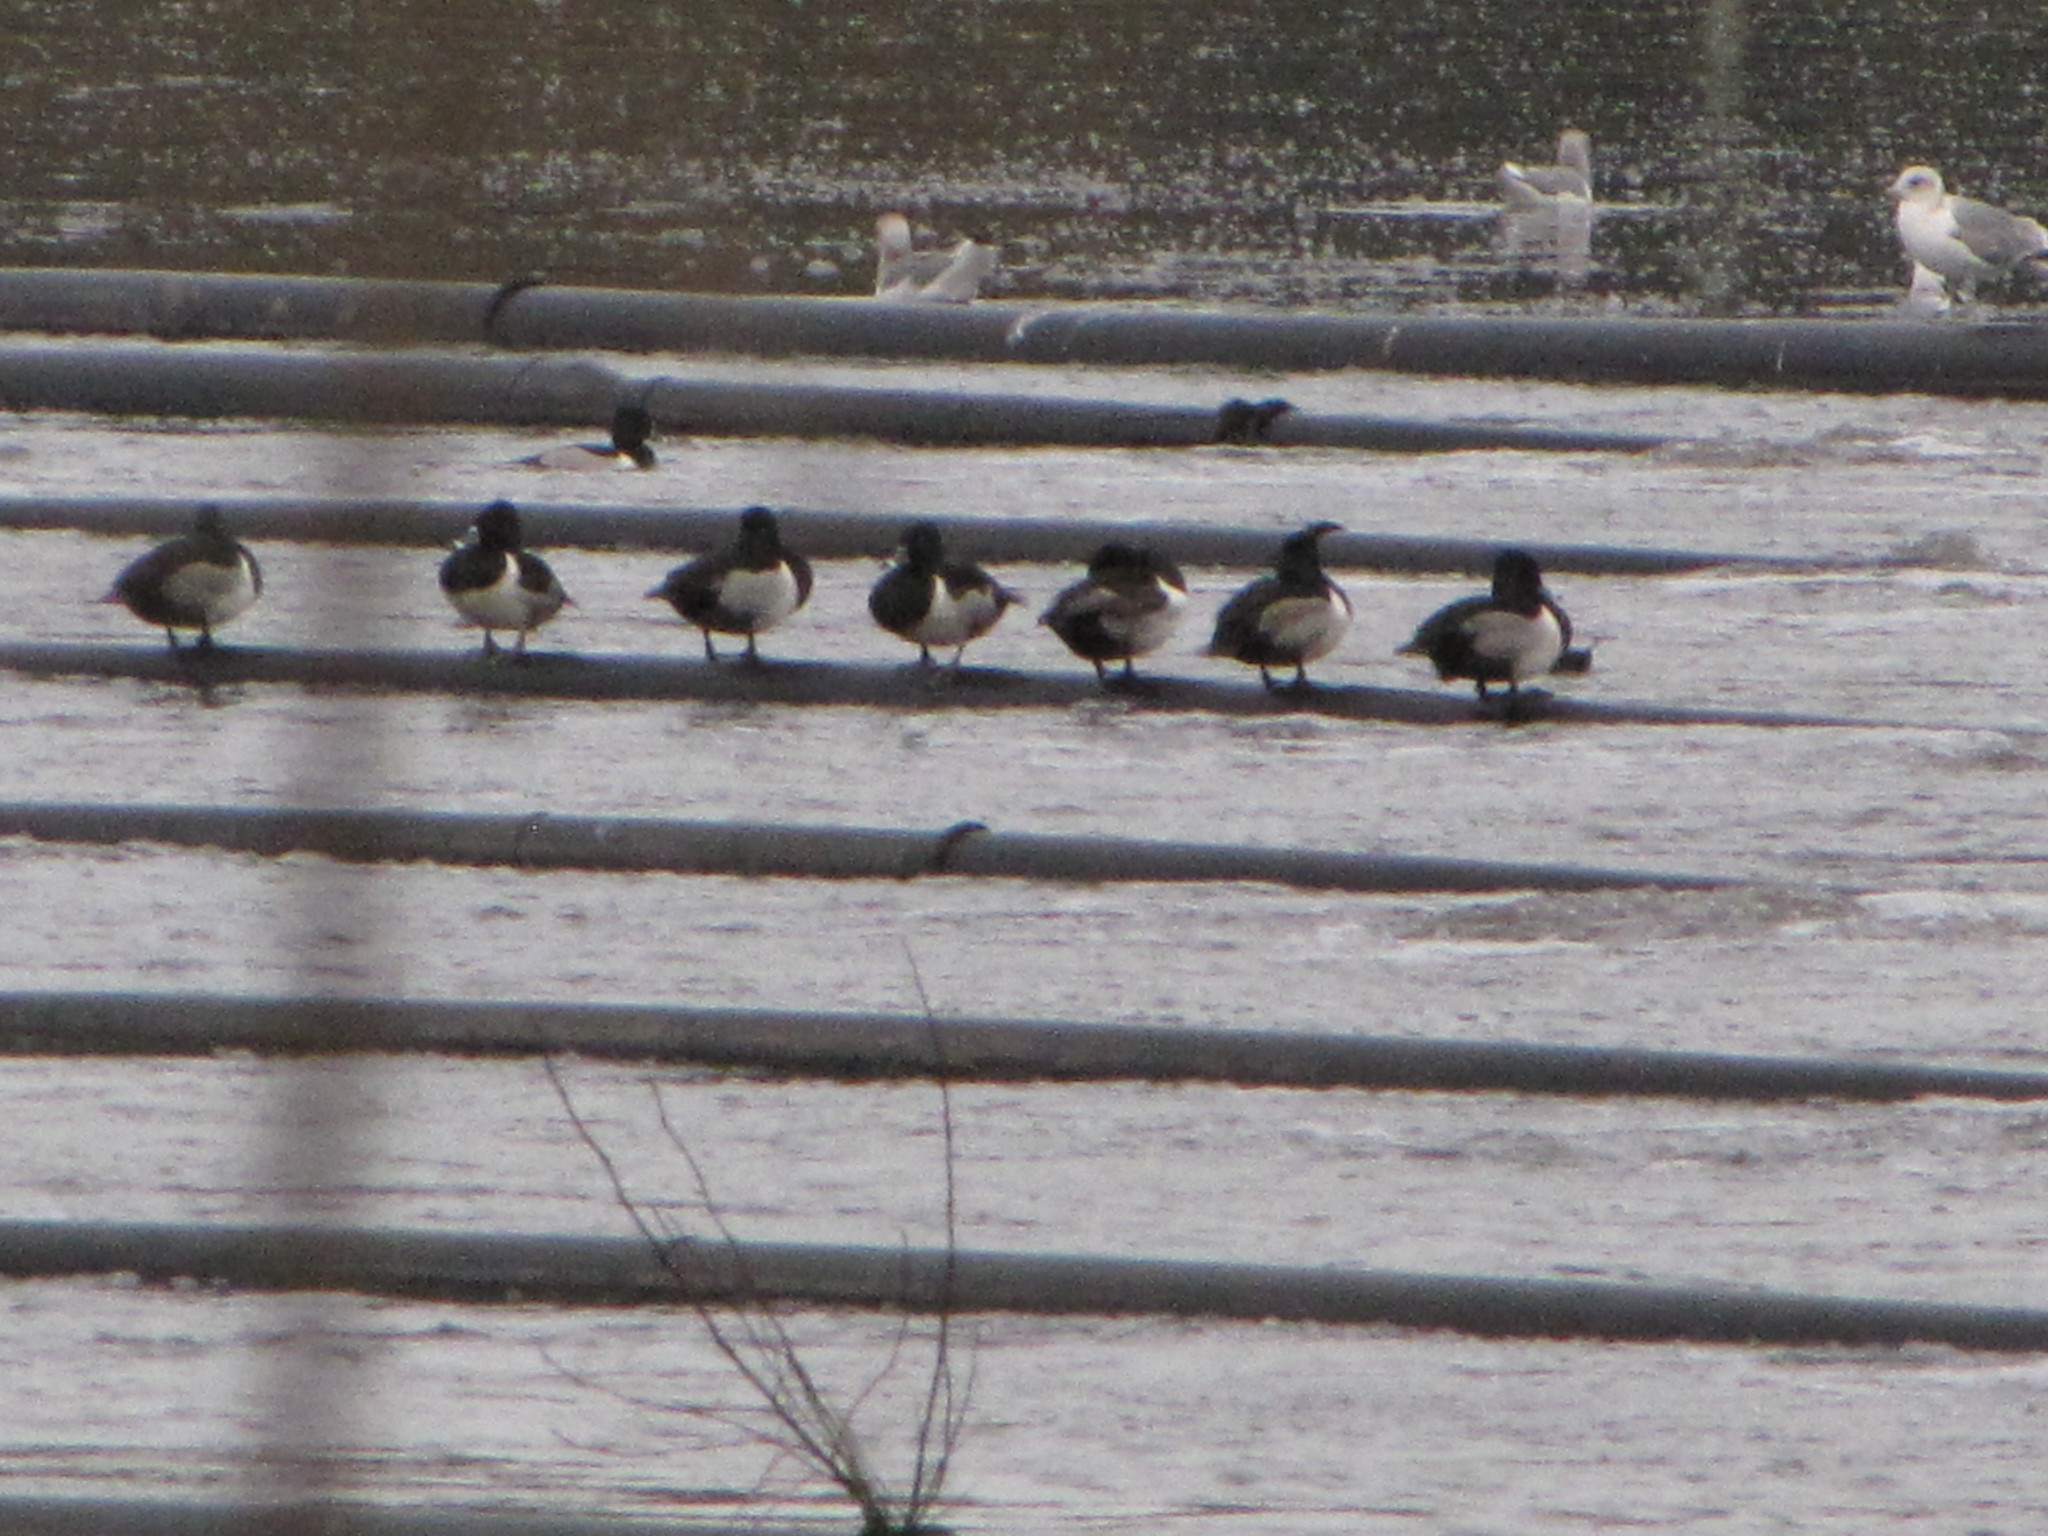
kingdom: Animalia
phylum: Chordata
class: Aves
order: Anseriformes
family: Anatidae
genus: Aythya
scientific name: Aythya collaris
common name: Ring-necked duck
